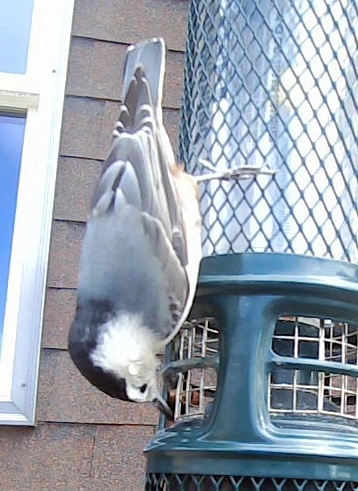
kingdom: Animalia
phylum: Chordata
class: Aves
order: Passeriformes
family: Sittidae
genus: Sitta
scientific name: Sitta carolinensis
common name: White-breasted nuthatch
